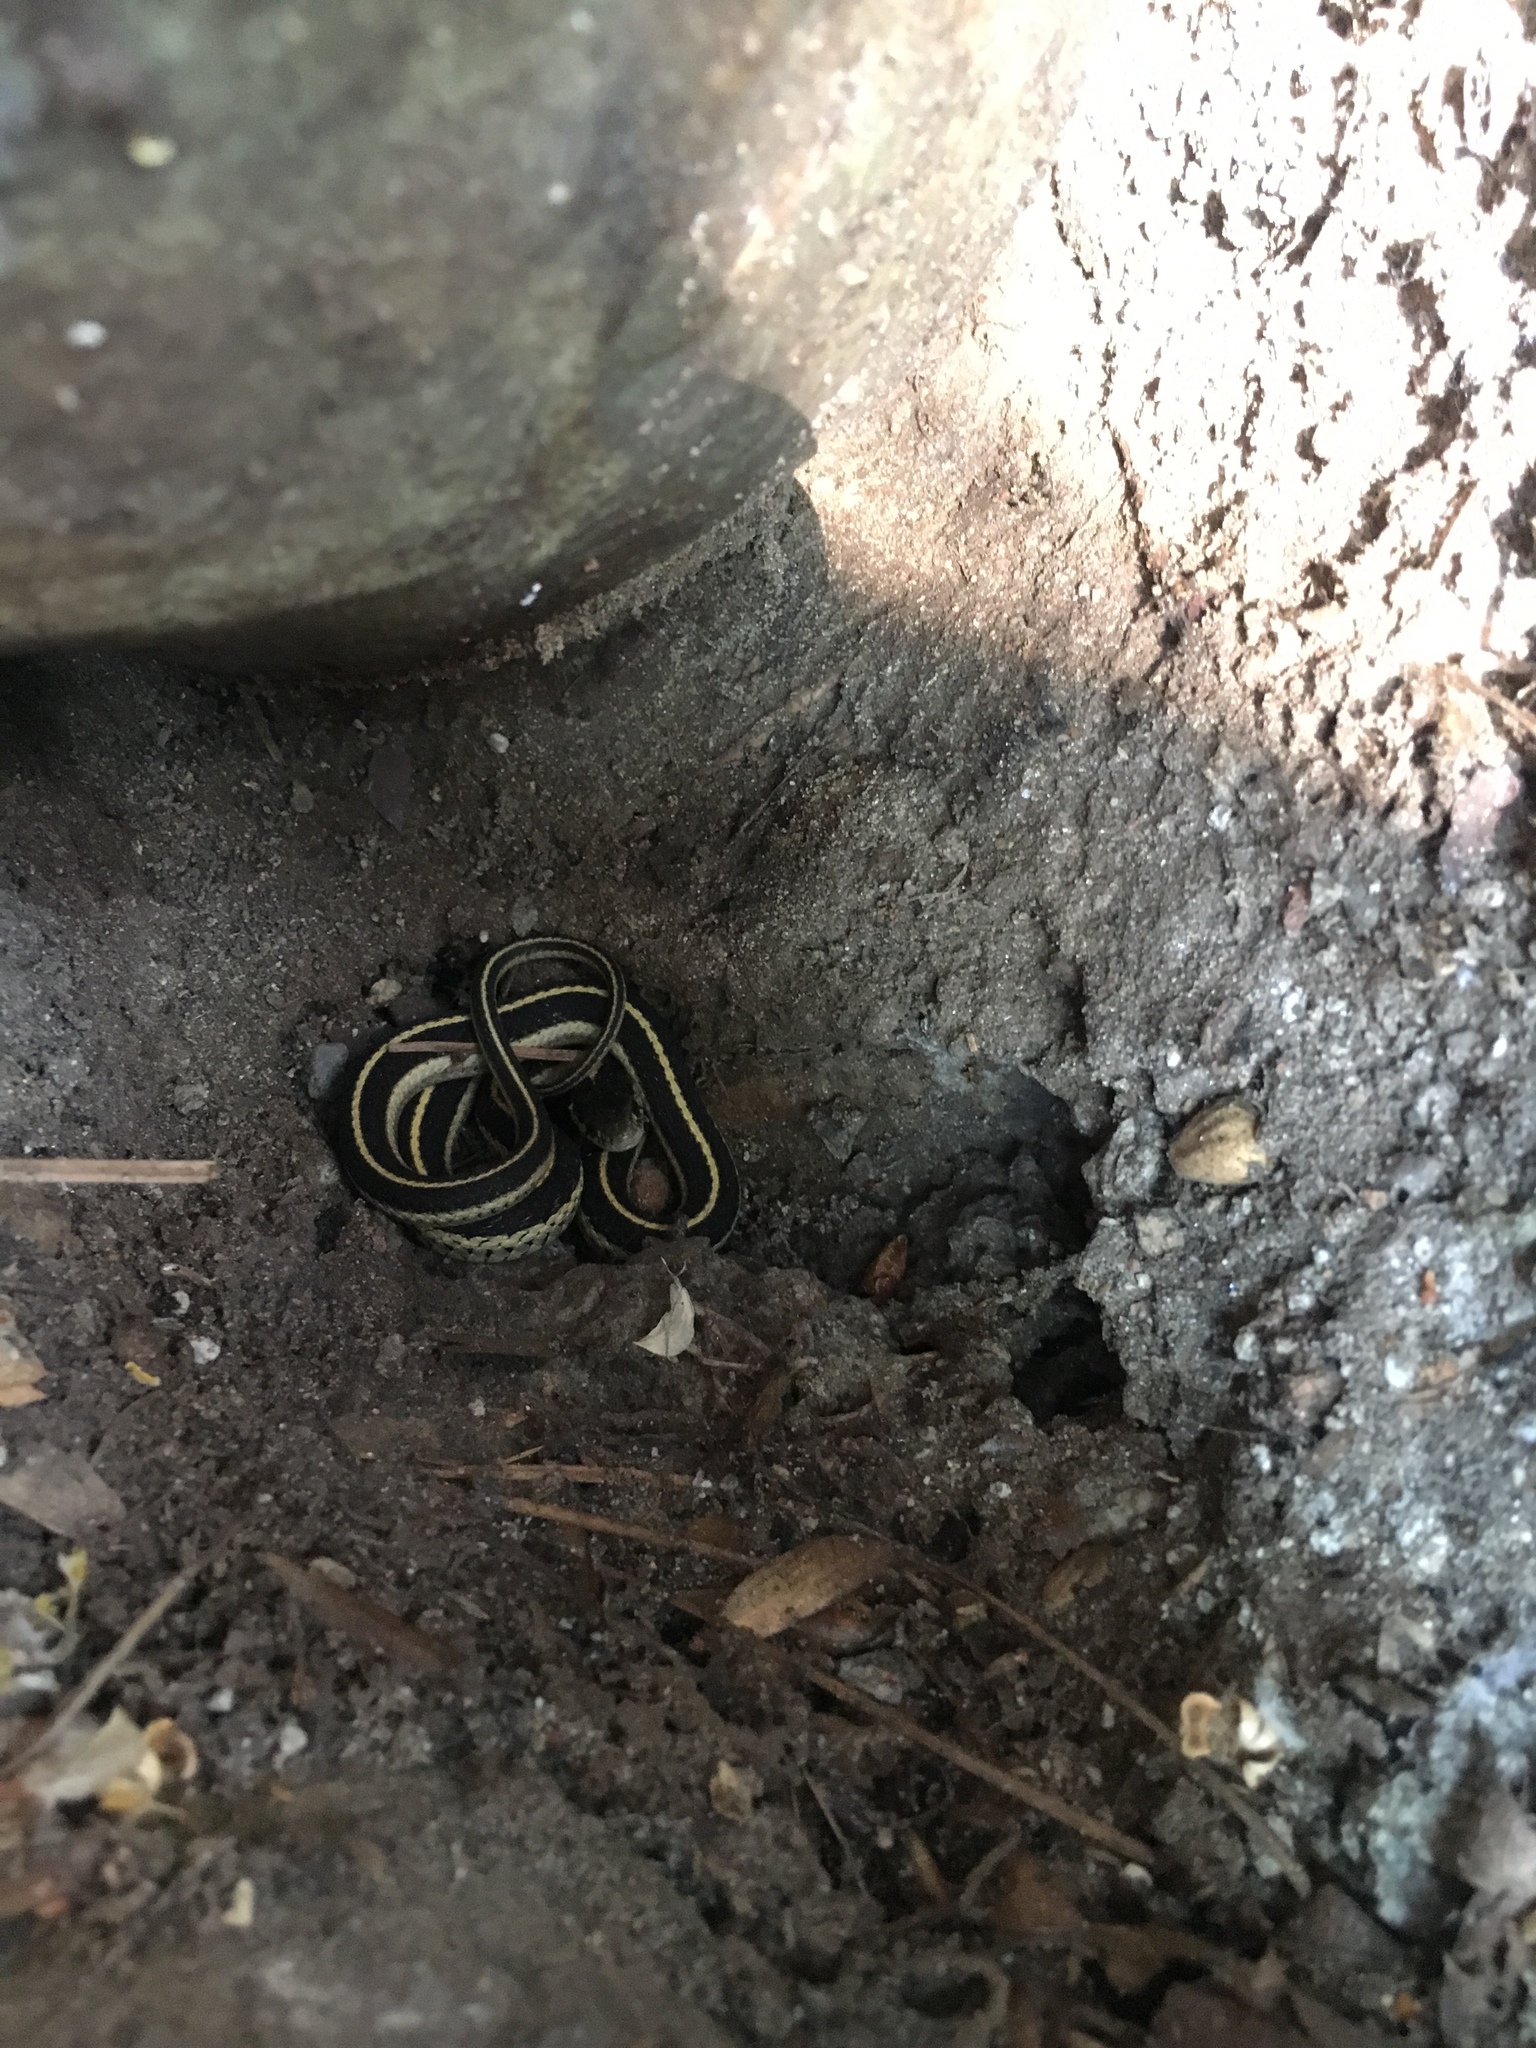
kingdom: Animalia
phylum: Chordata
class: Squamata
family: Colubridae
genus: Thamnophis
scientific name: Thamnophis elegans
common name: Western terrestrial garter snake
